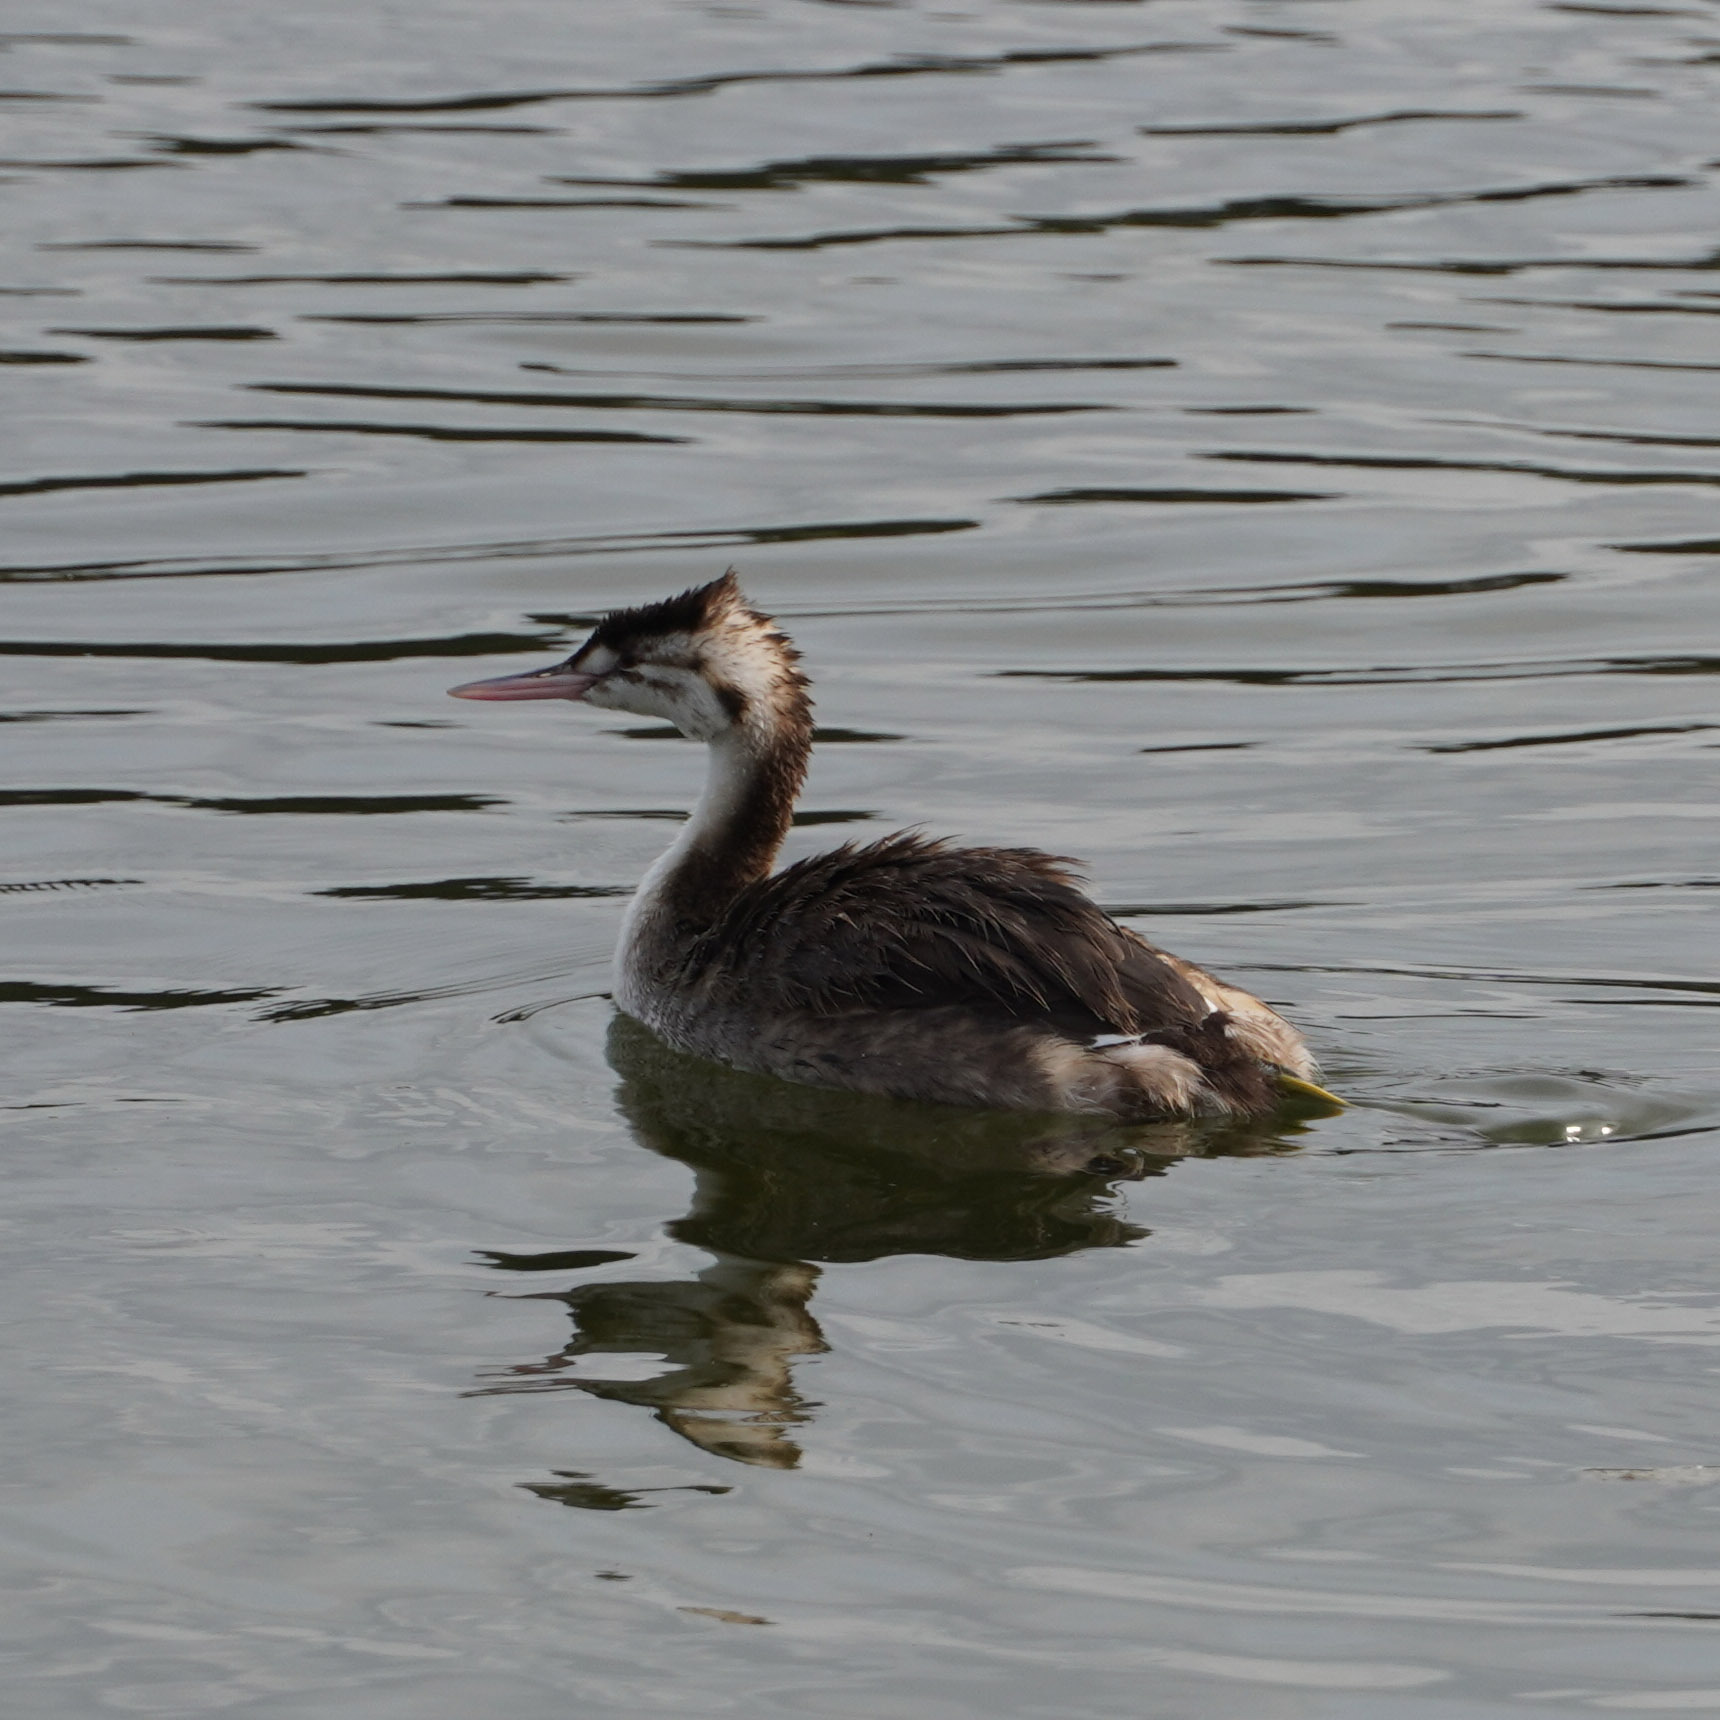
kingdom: Animalia
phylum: Chordata
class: Aves
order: Podicipediformes
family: Podicipedidae
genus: Podiceps
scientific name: Podiceps cristatus
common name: Great crested grebe
